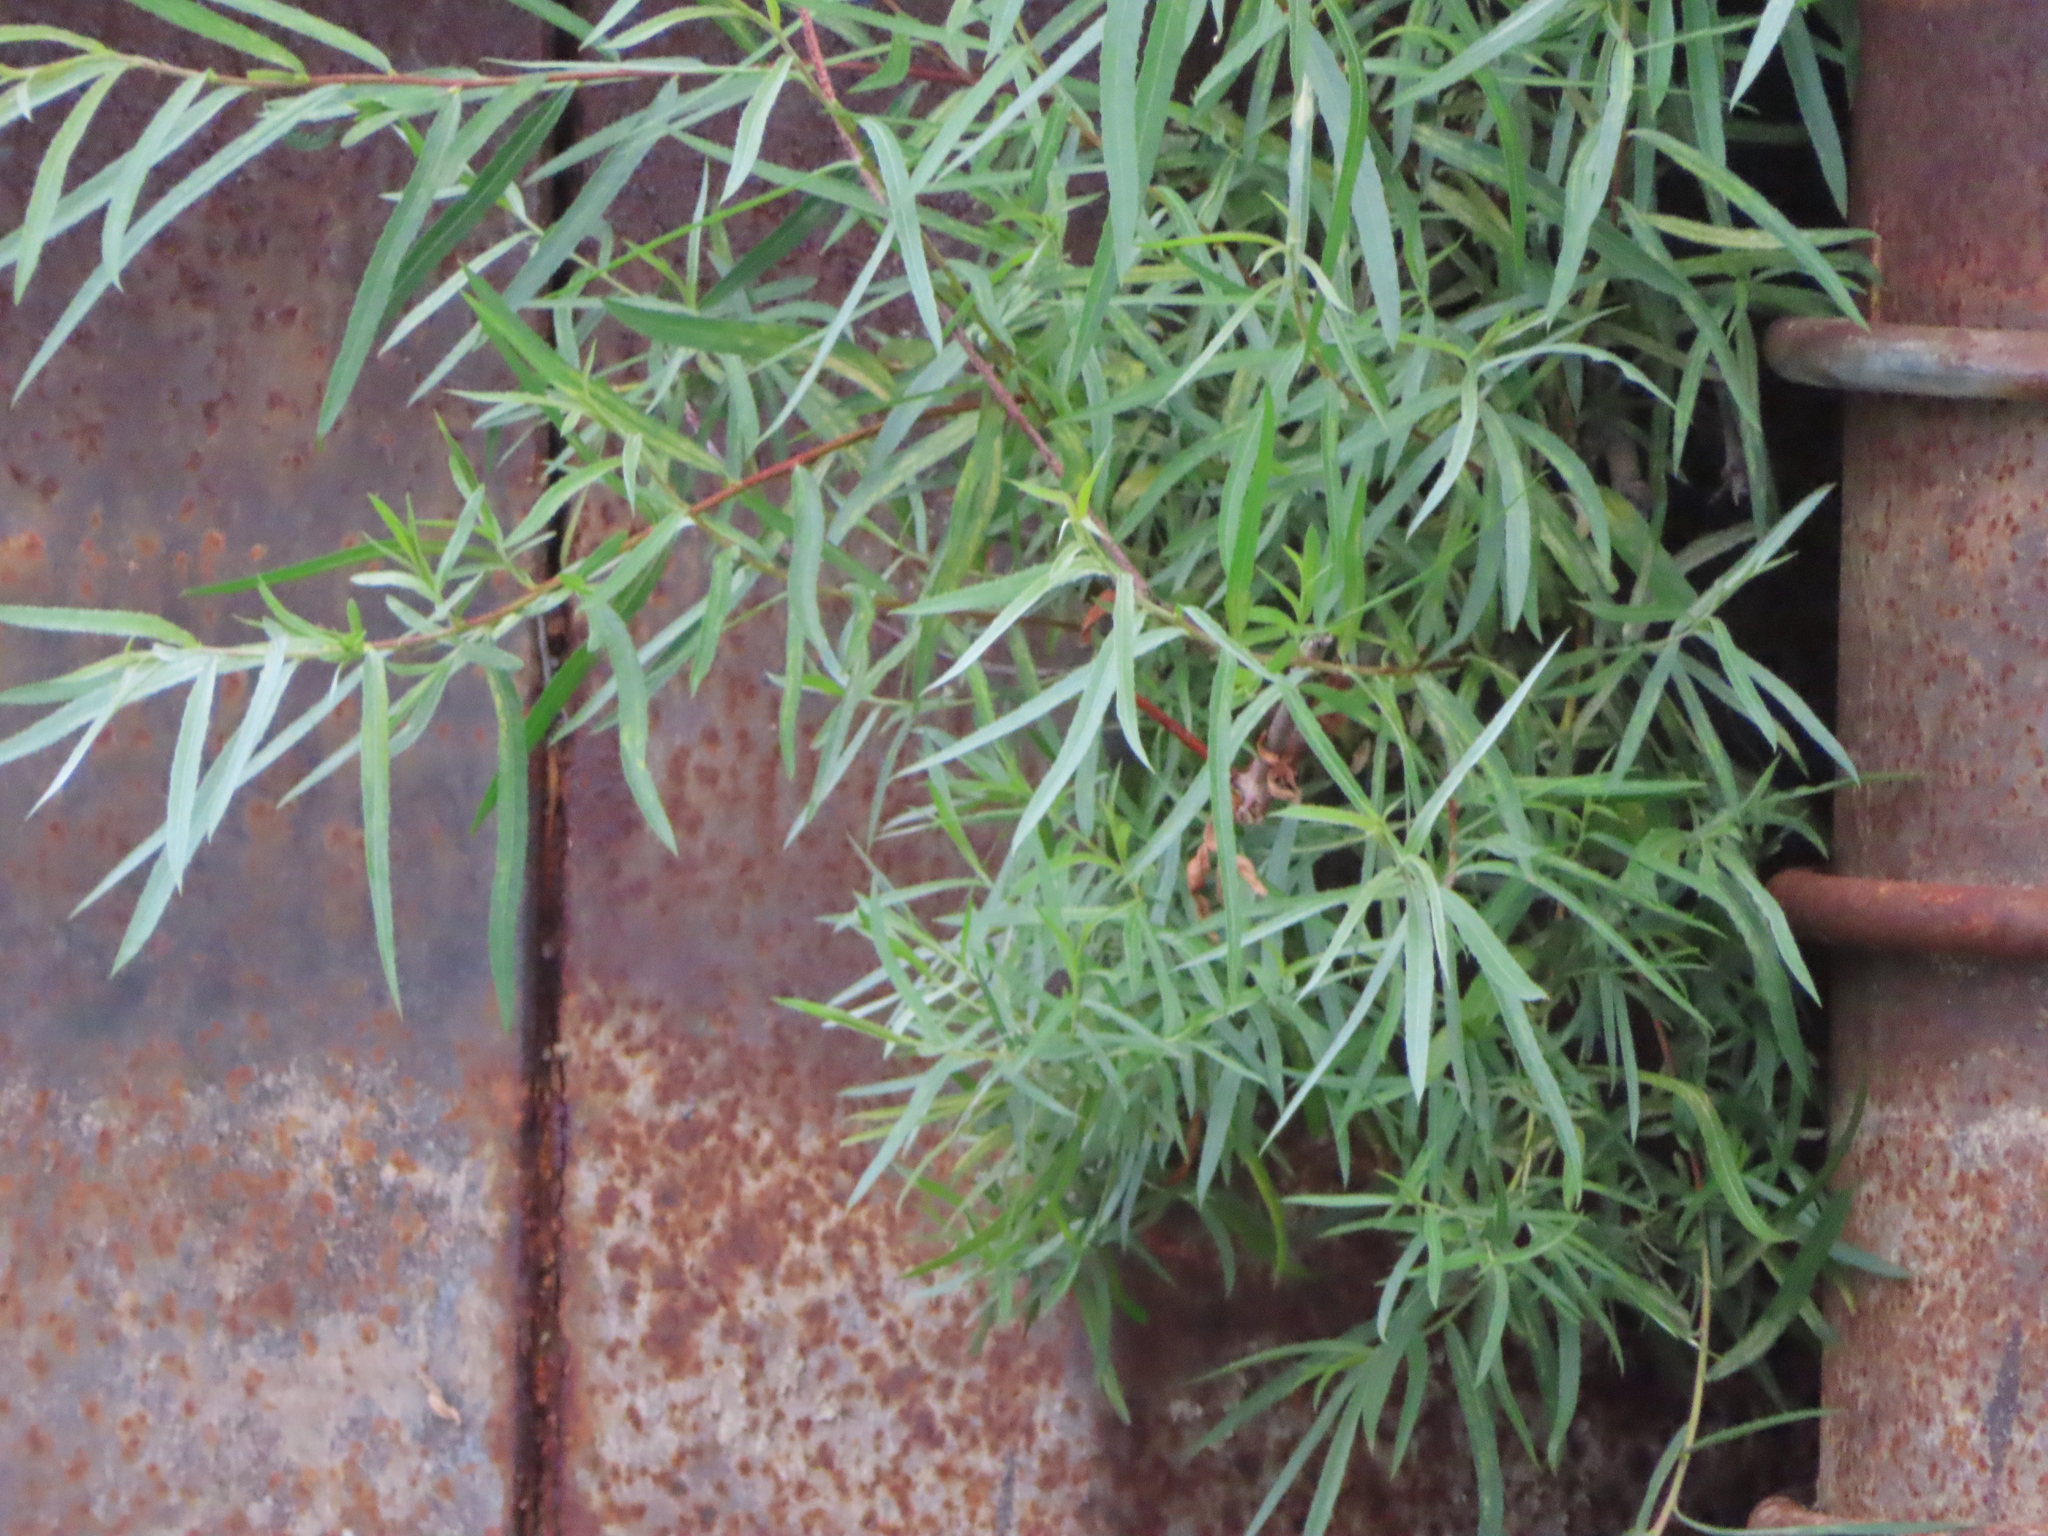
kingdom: Plantae
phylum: Tracheophyta
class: Magnoliopsida
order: Malpighiales
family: Salicaceae
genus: Salix
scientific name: Salix interior
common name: Sandbar willow
